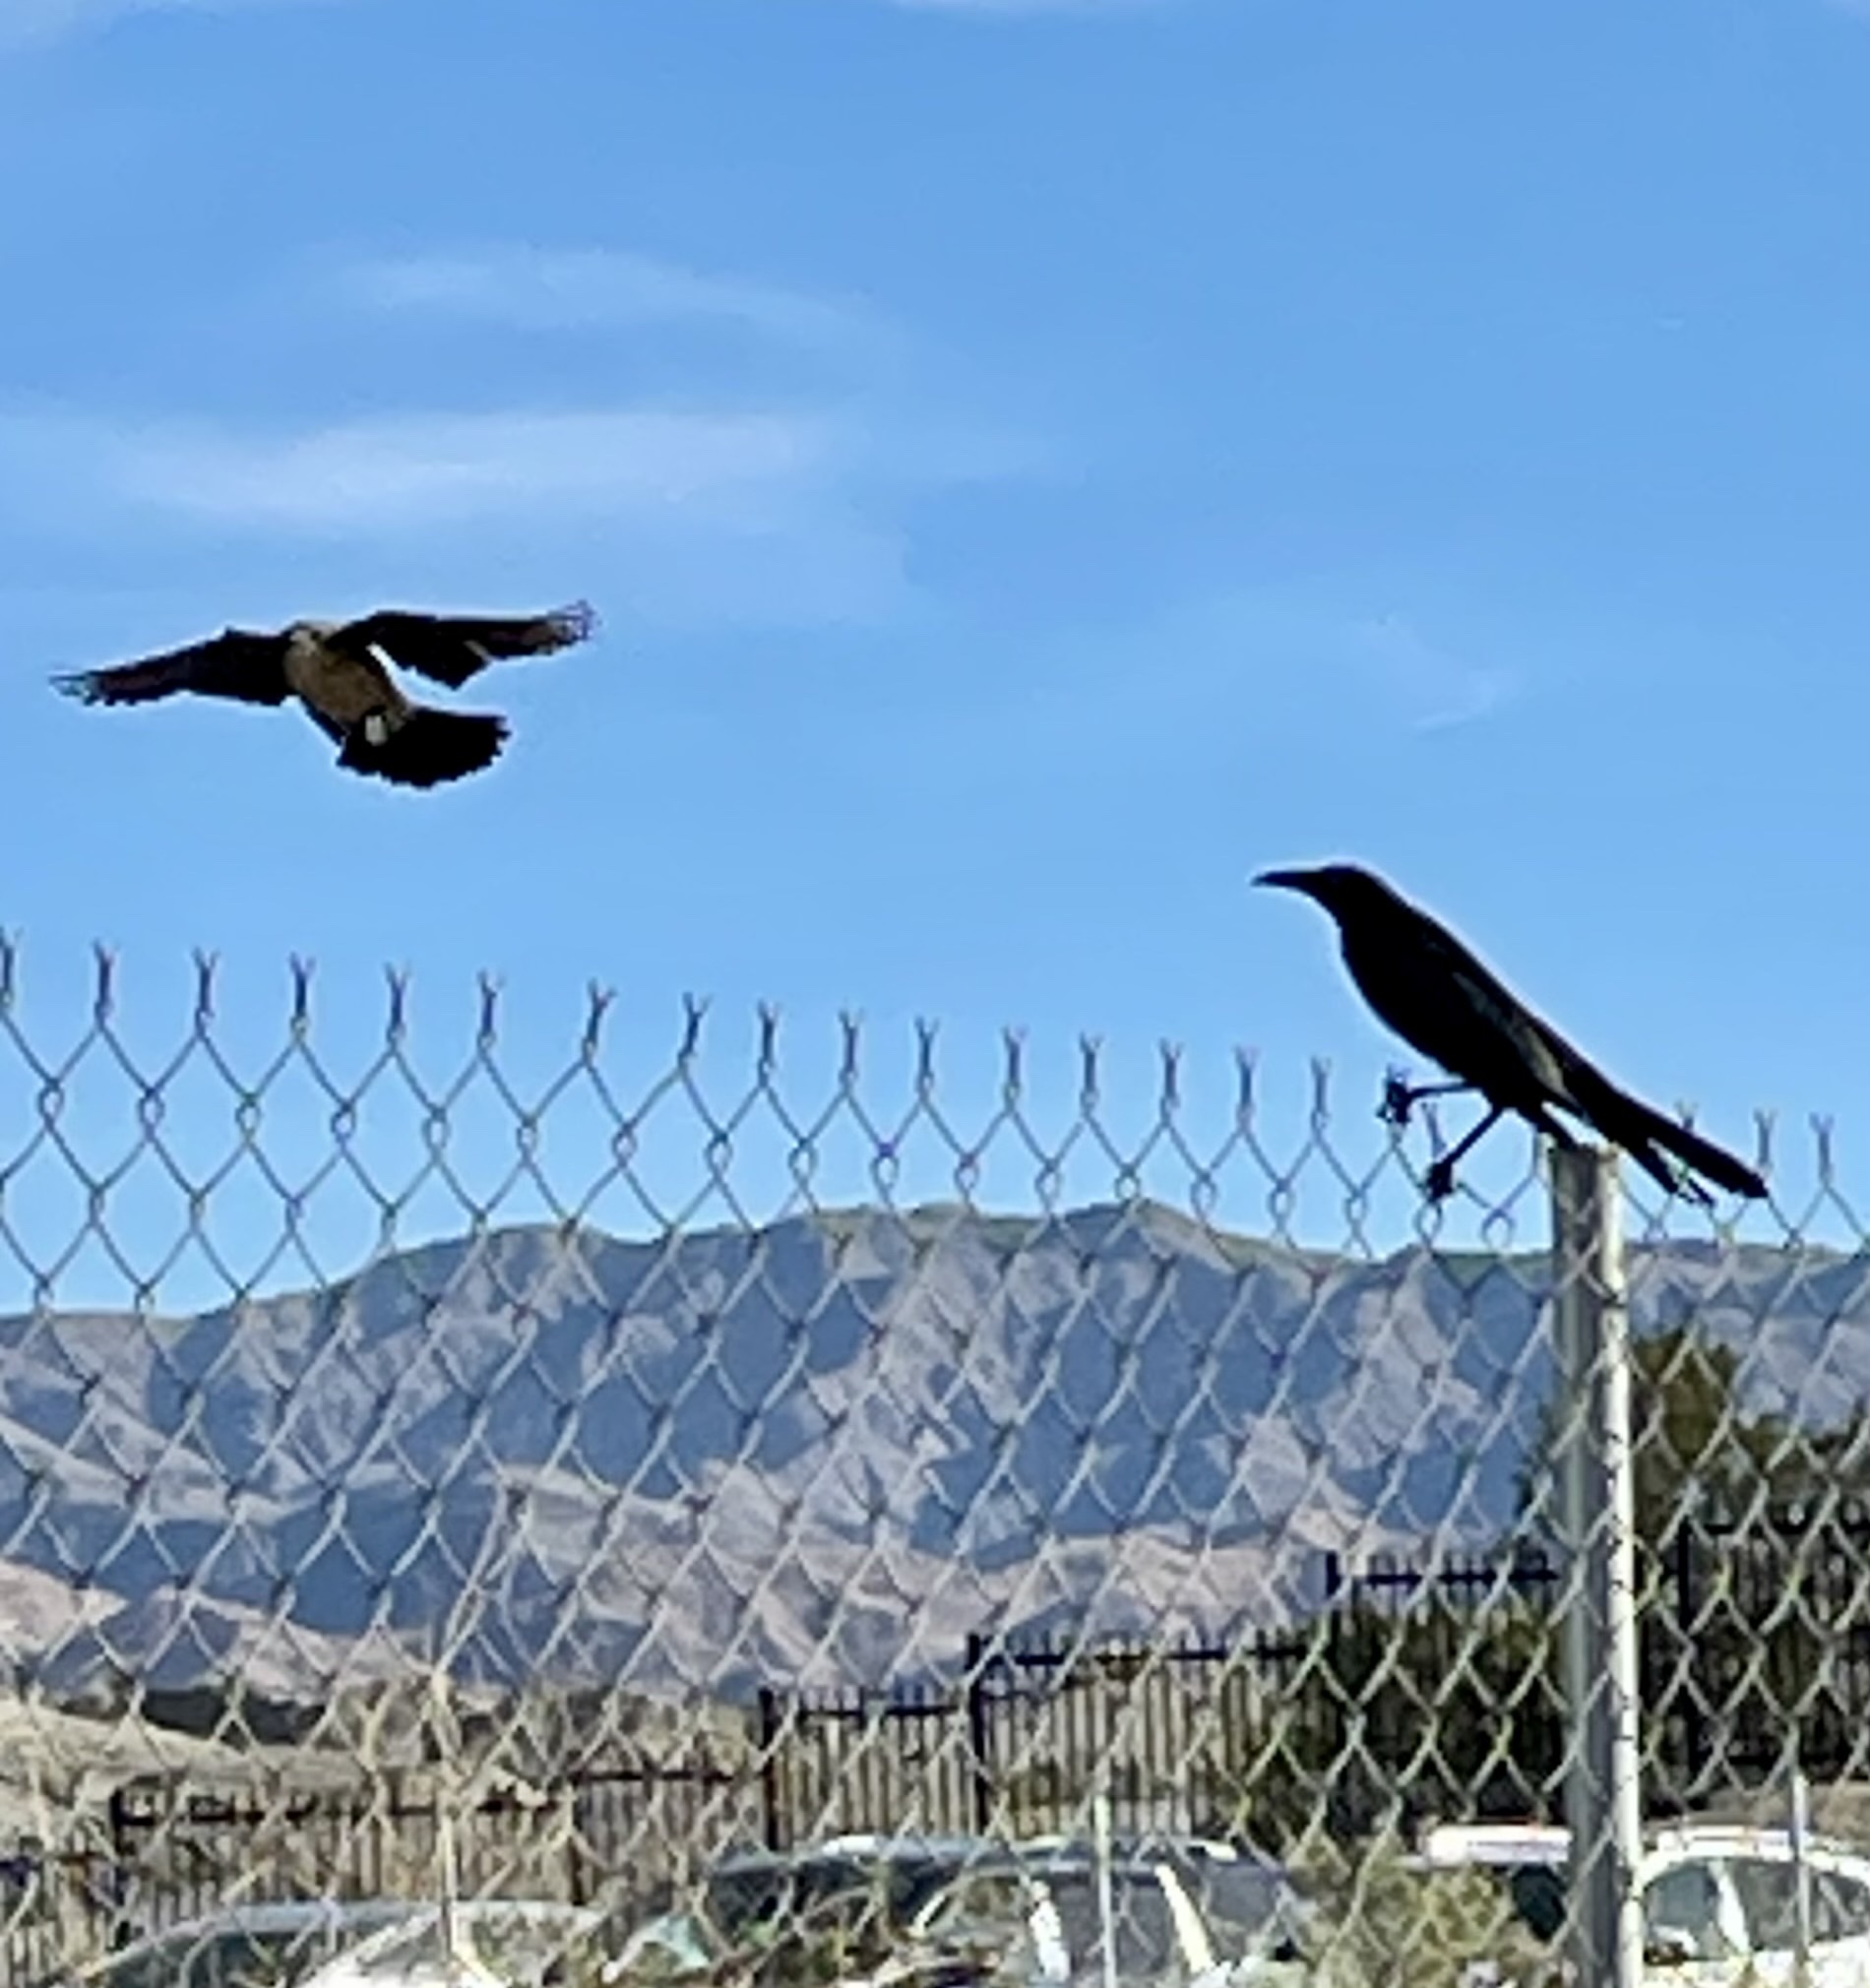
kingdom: Animalia
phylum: Chordata
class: Aves
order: Passeriformes
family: Icteridae
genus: Quiscalus
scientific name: Quiscalus mexicanus
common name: Great-tailed grackle
